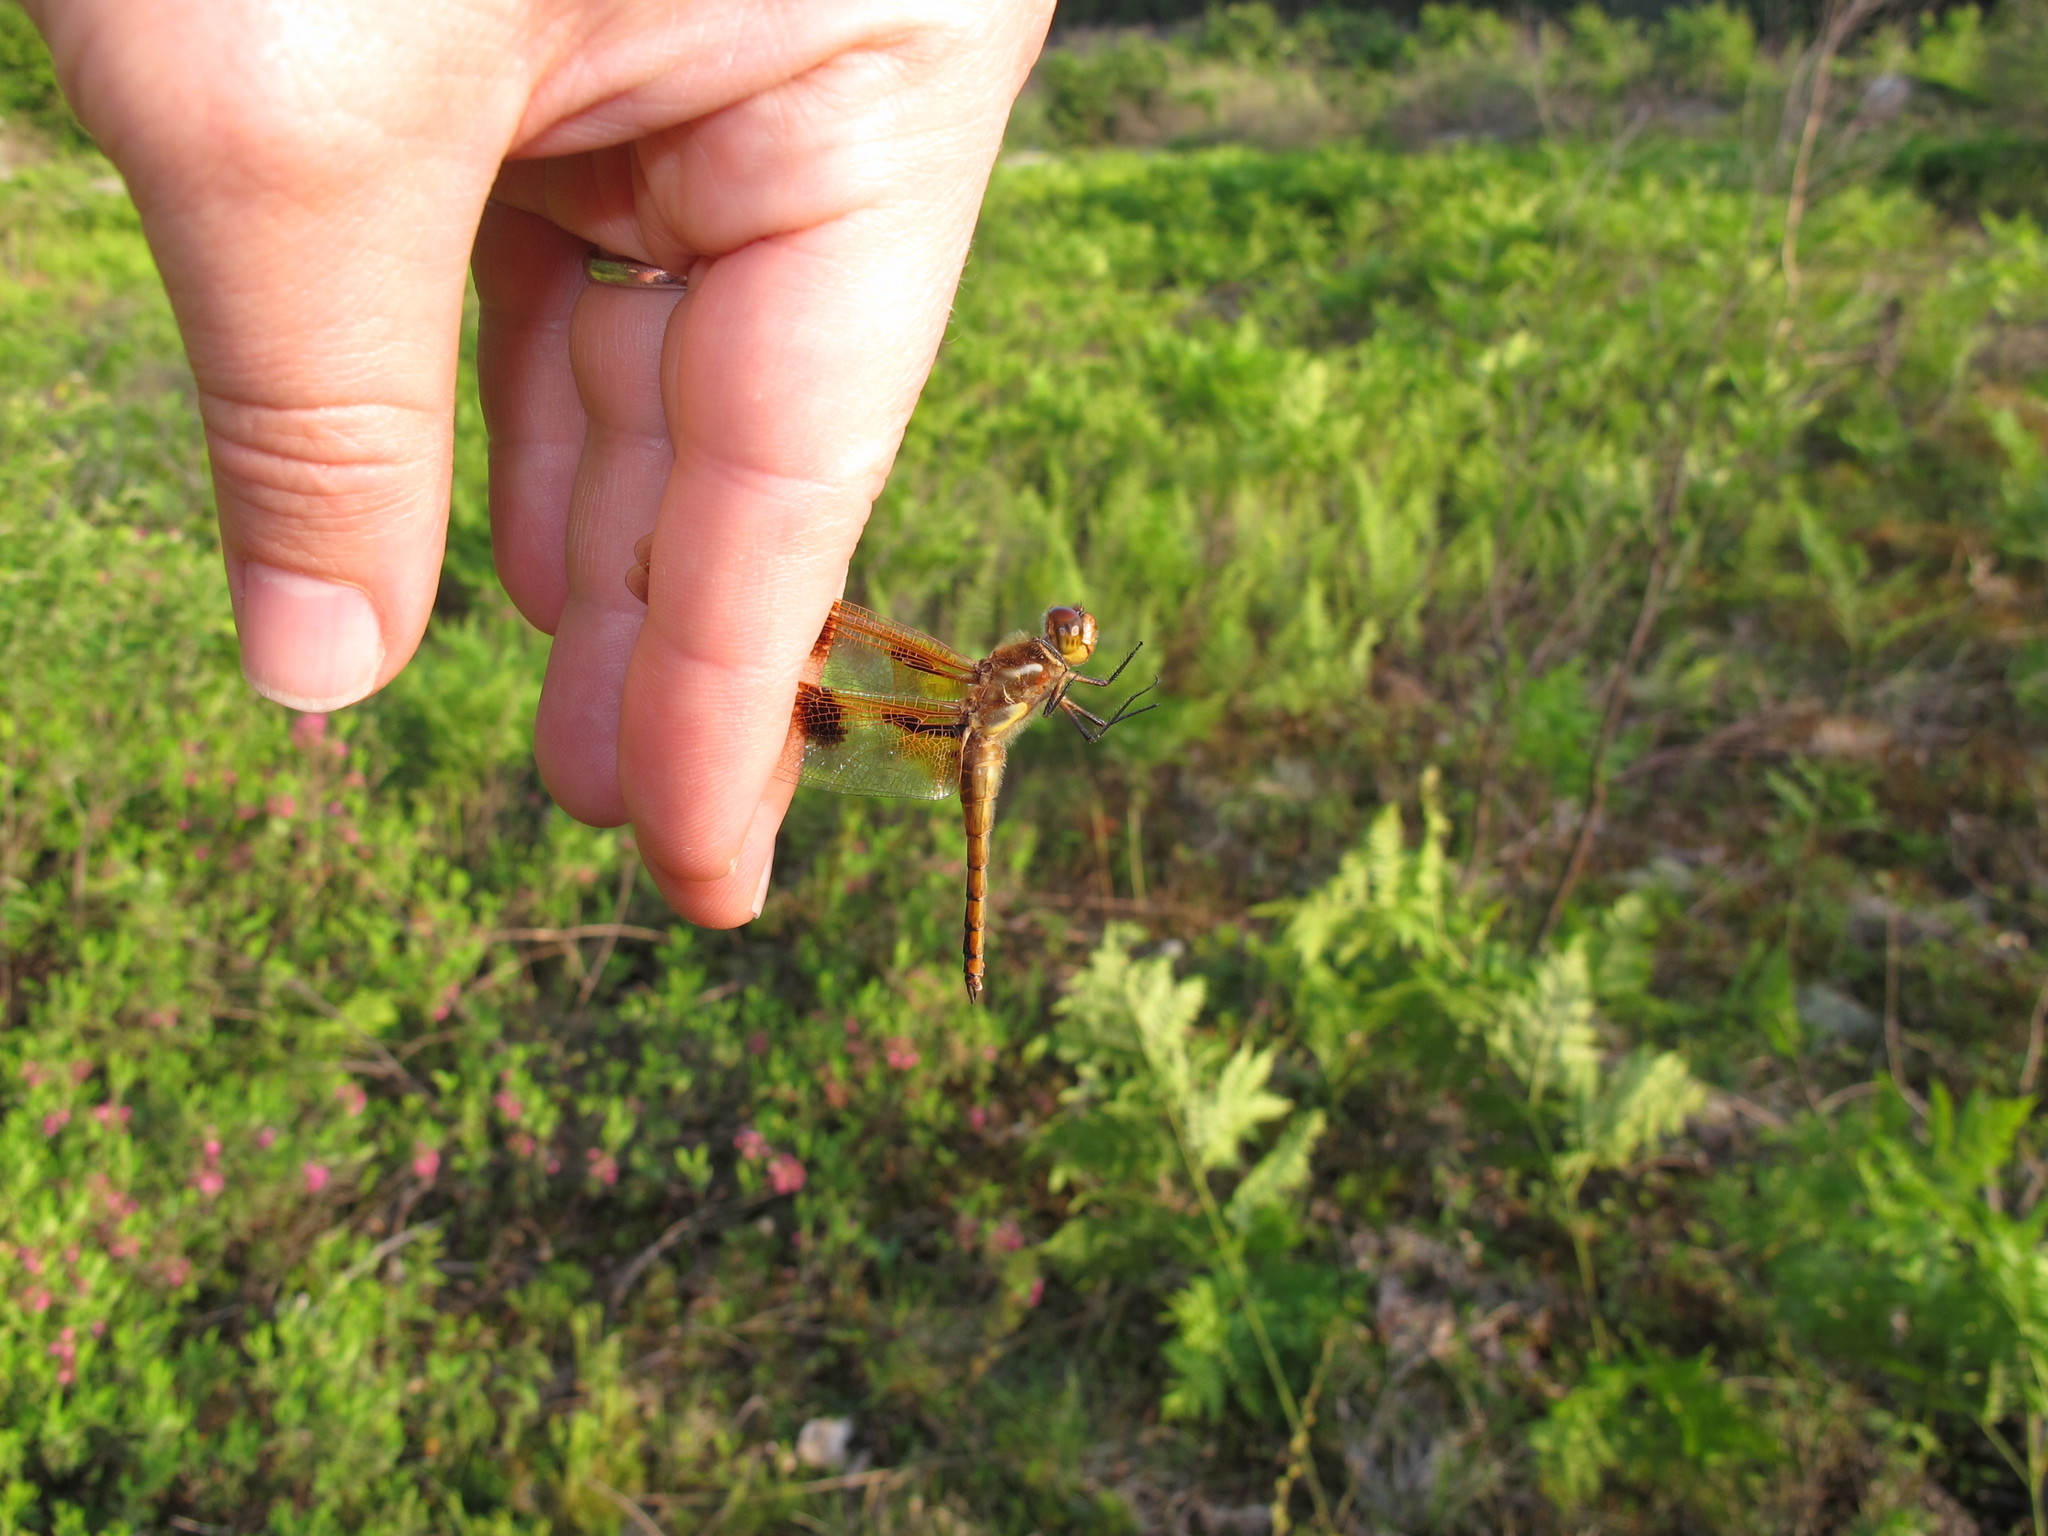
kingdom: Animalia
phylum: Arthropoda
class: Insecta
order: Odonata
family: Libellulidae
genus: Libellula
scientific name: Libellula semifasciata
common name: Painted skimmer
